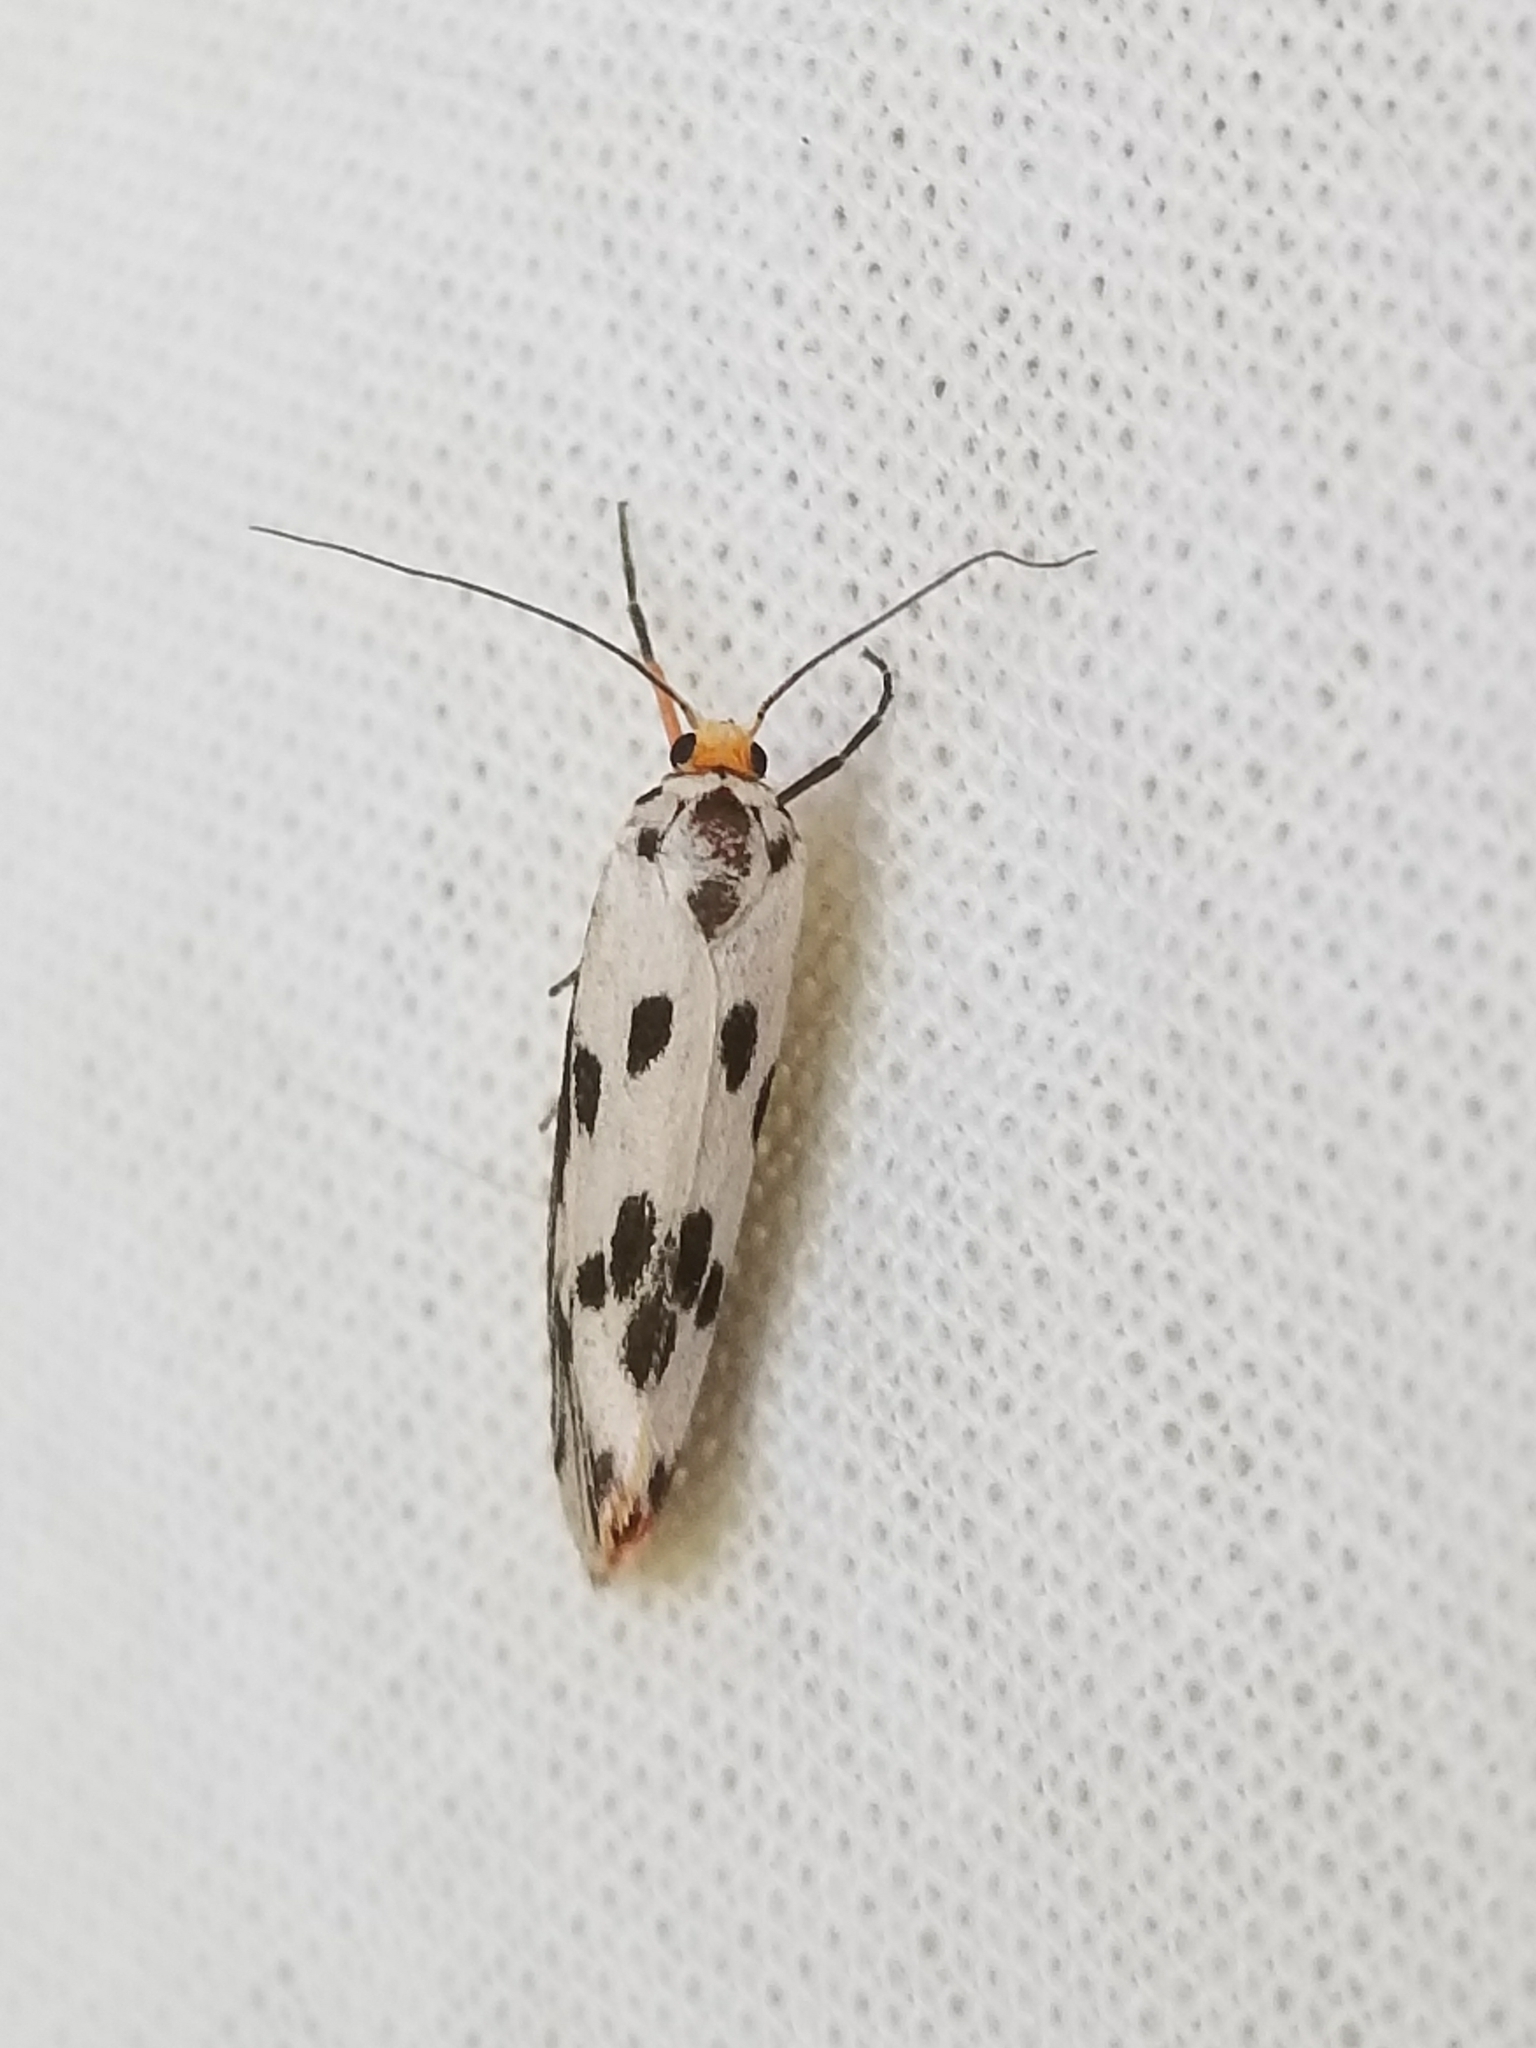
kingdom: Animalia
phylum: Arthropoda
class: Insecta
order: Lepidoptera
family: Lacturidae
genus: Lactura
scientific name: Lactura
